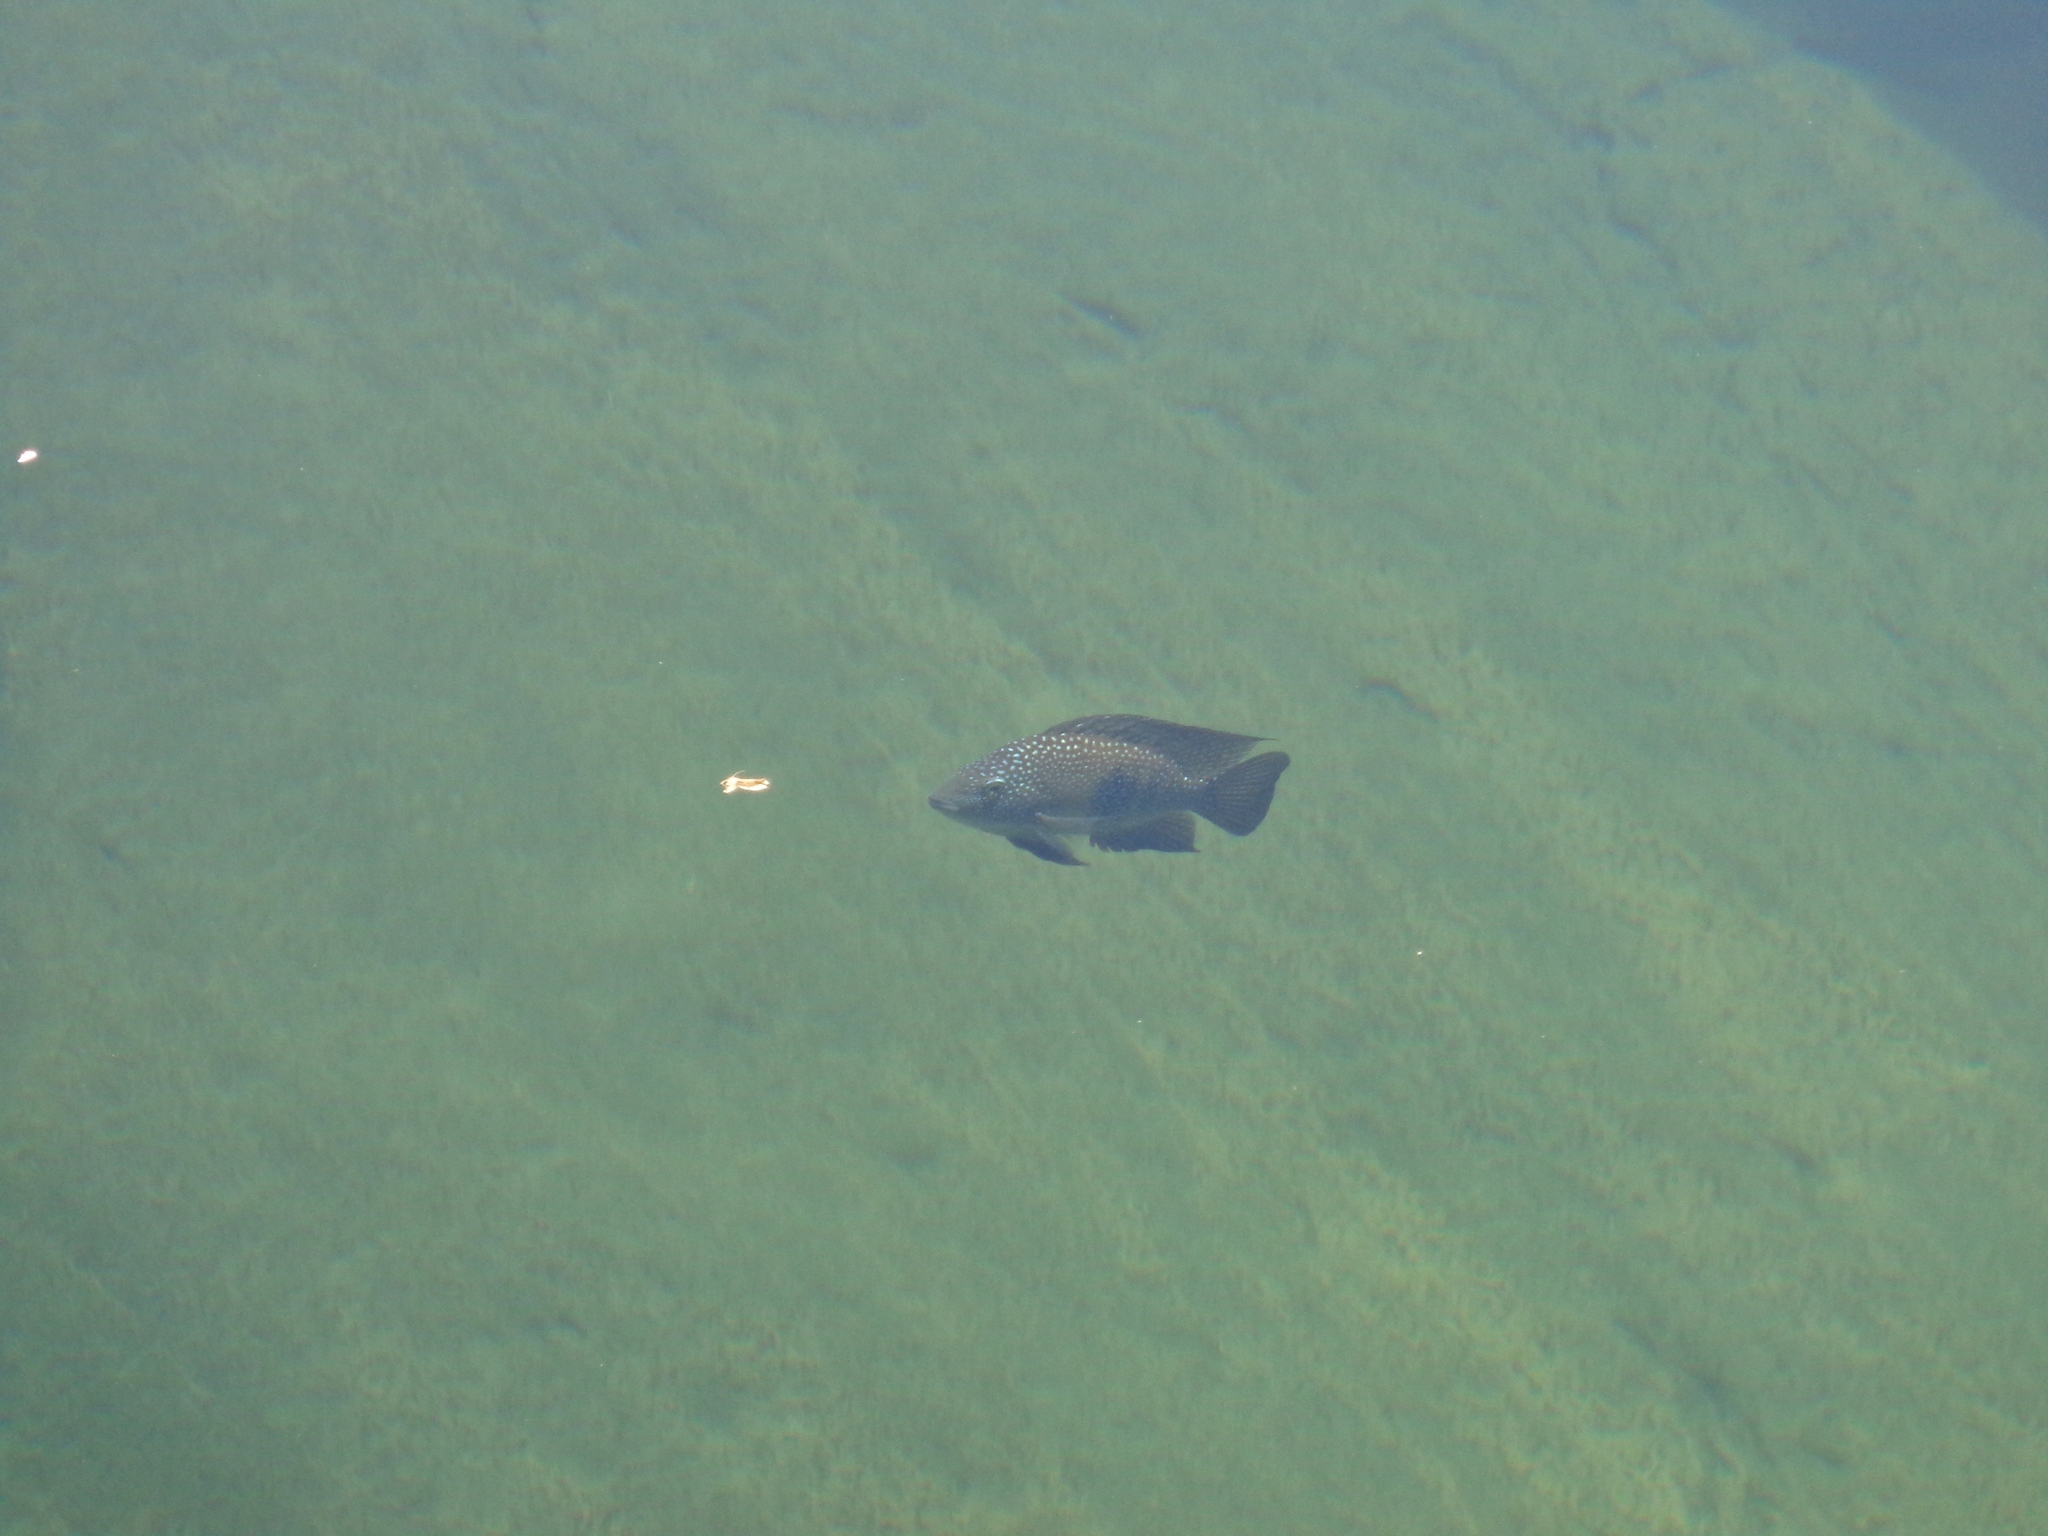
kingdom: Animalia
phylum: Chordata
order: Perciformes
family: Cichlidae
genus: Herichthys
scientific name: Herichthys cyanoguttatus
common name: Rio grande cichlid
